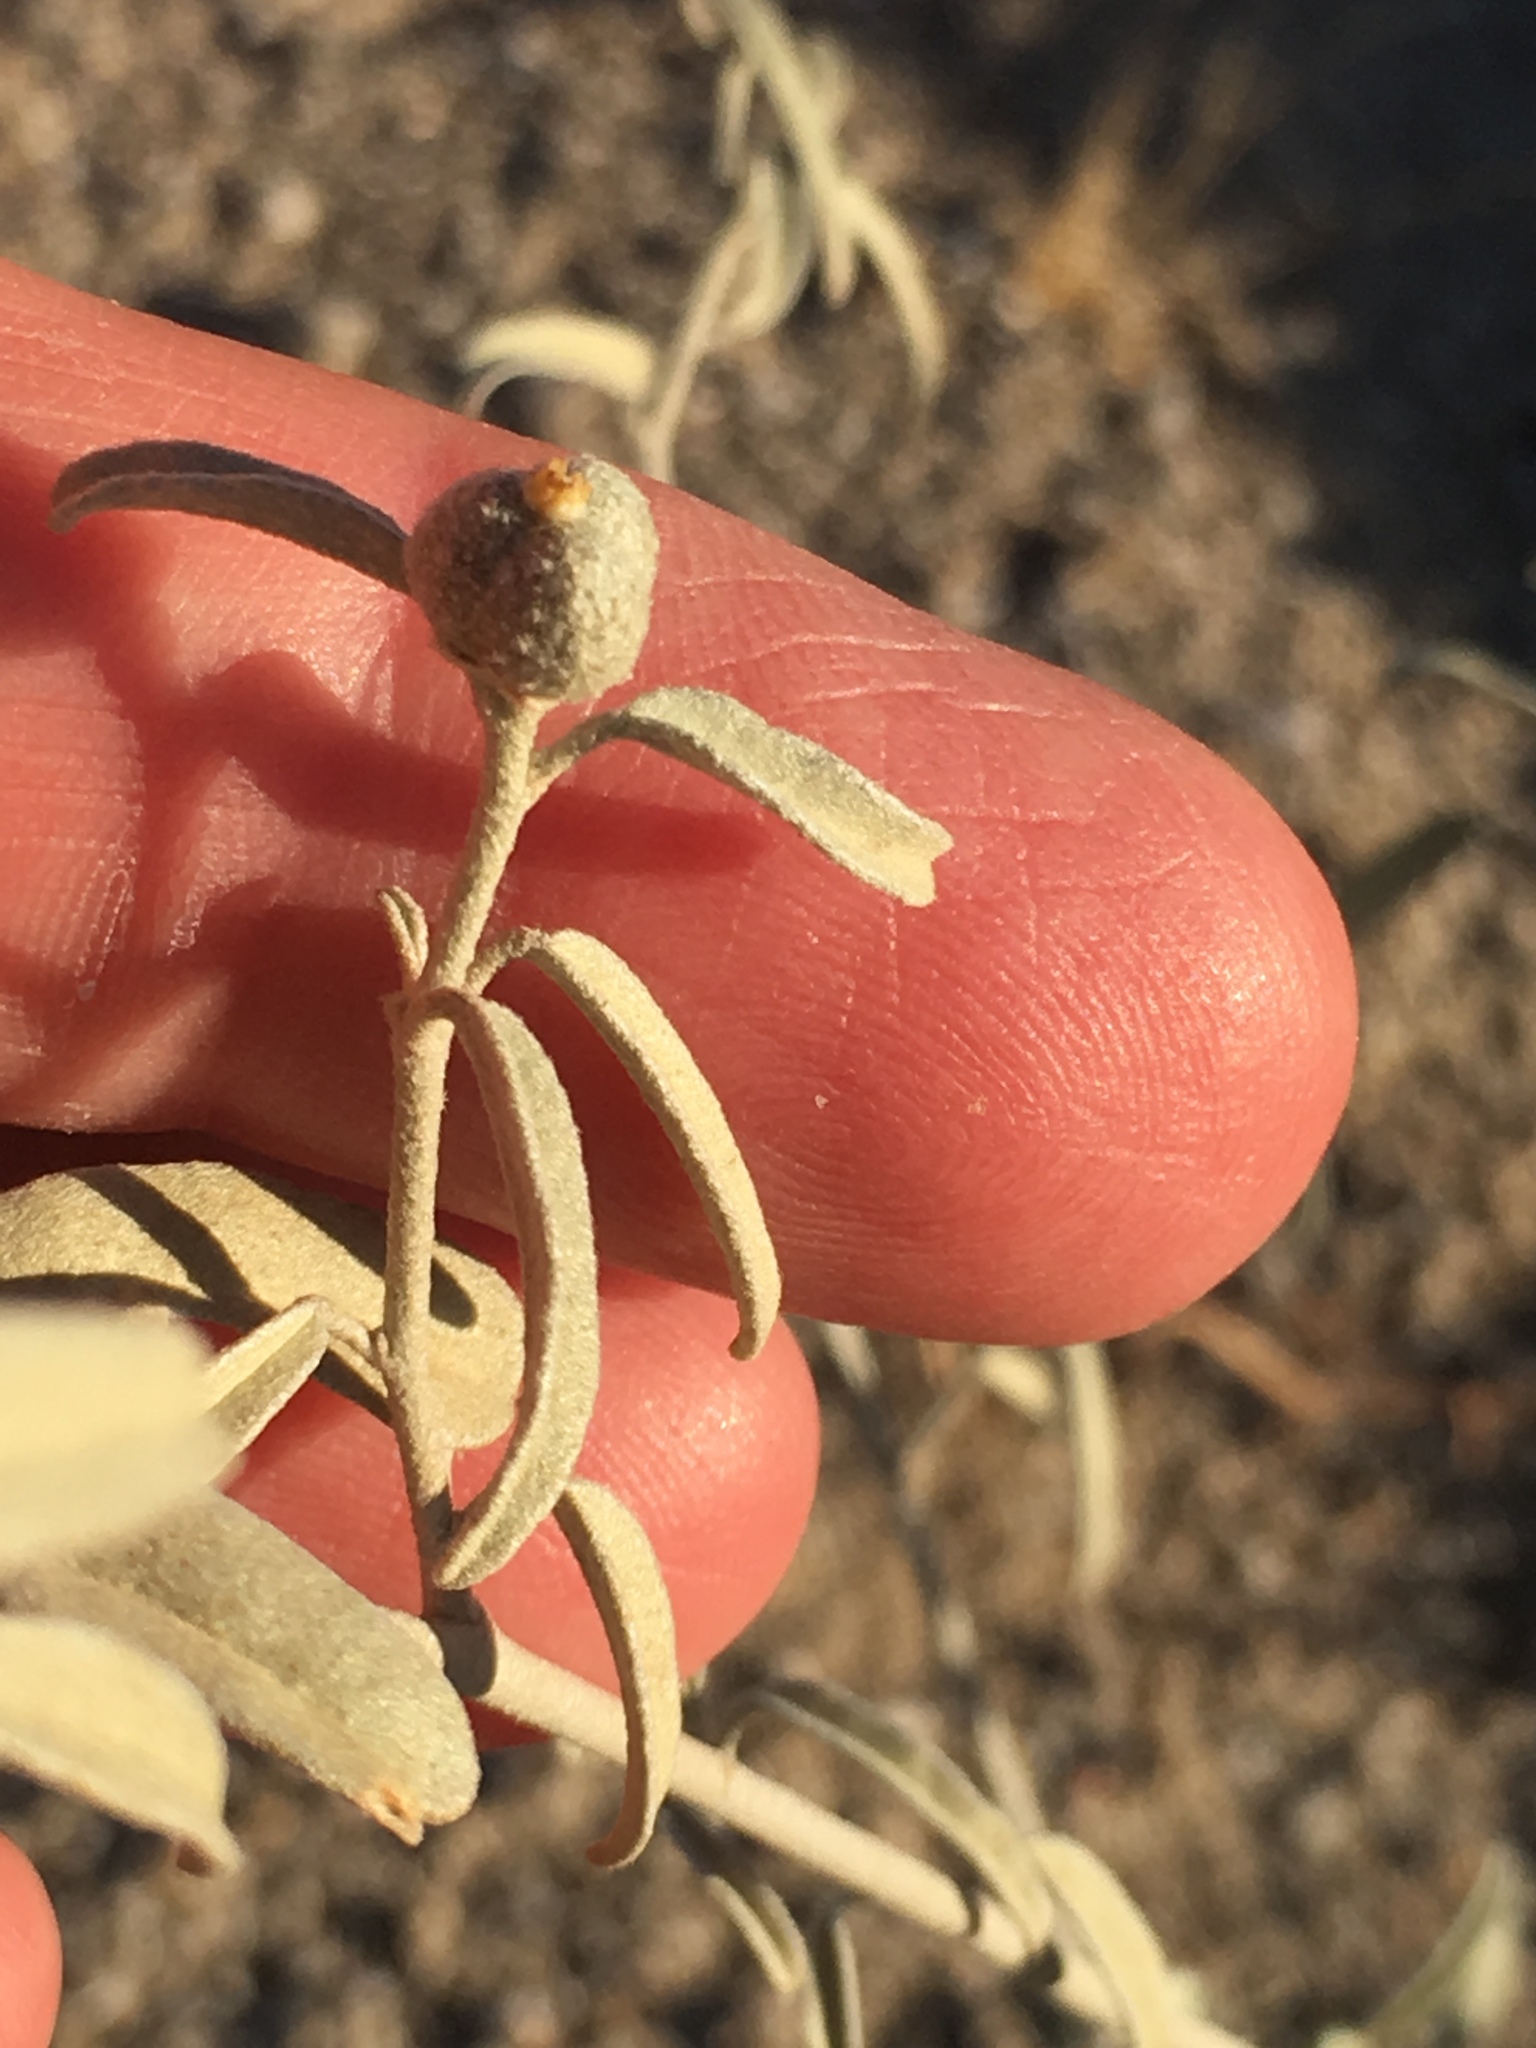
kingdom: Plantae
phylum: Tracheophyta
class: Magnoliopsida
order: Malpighiales
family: Euphorbiaceae
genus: Croton
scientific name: Croton californicus
